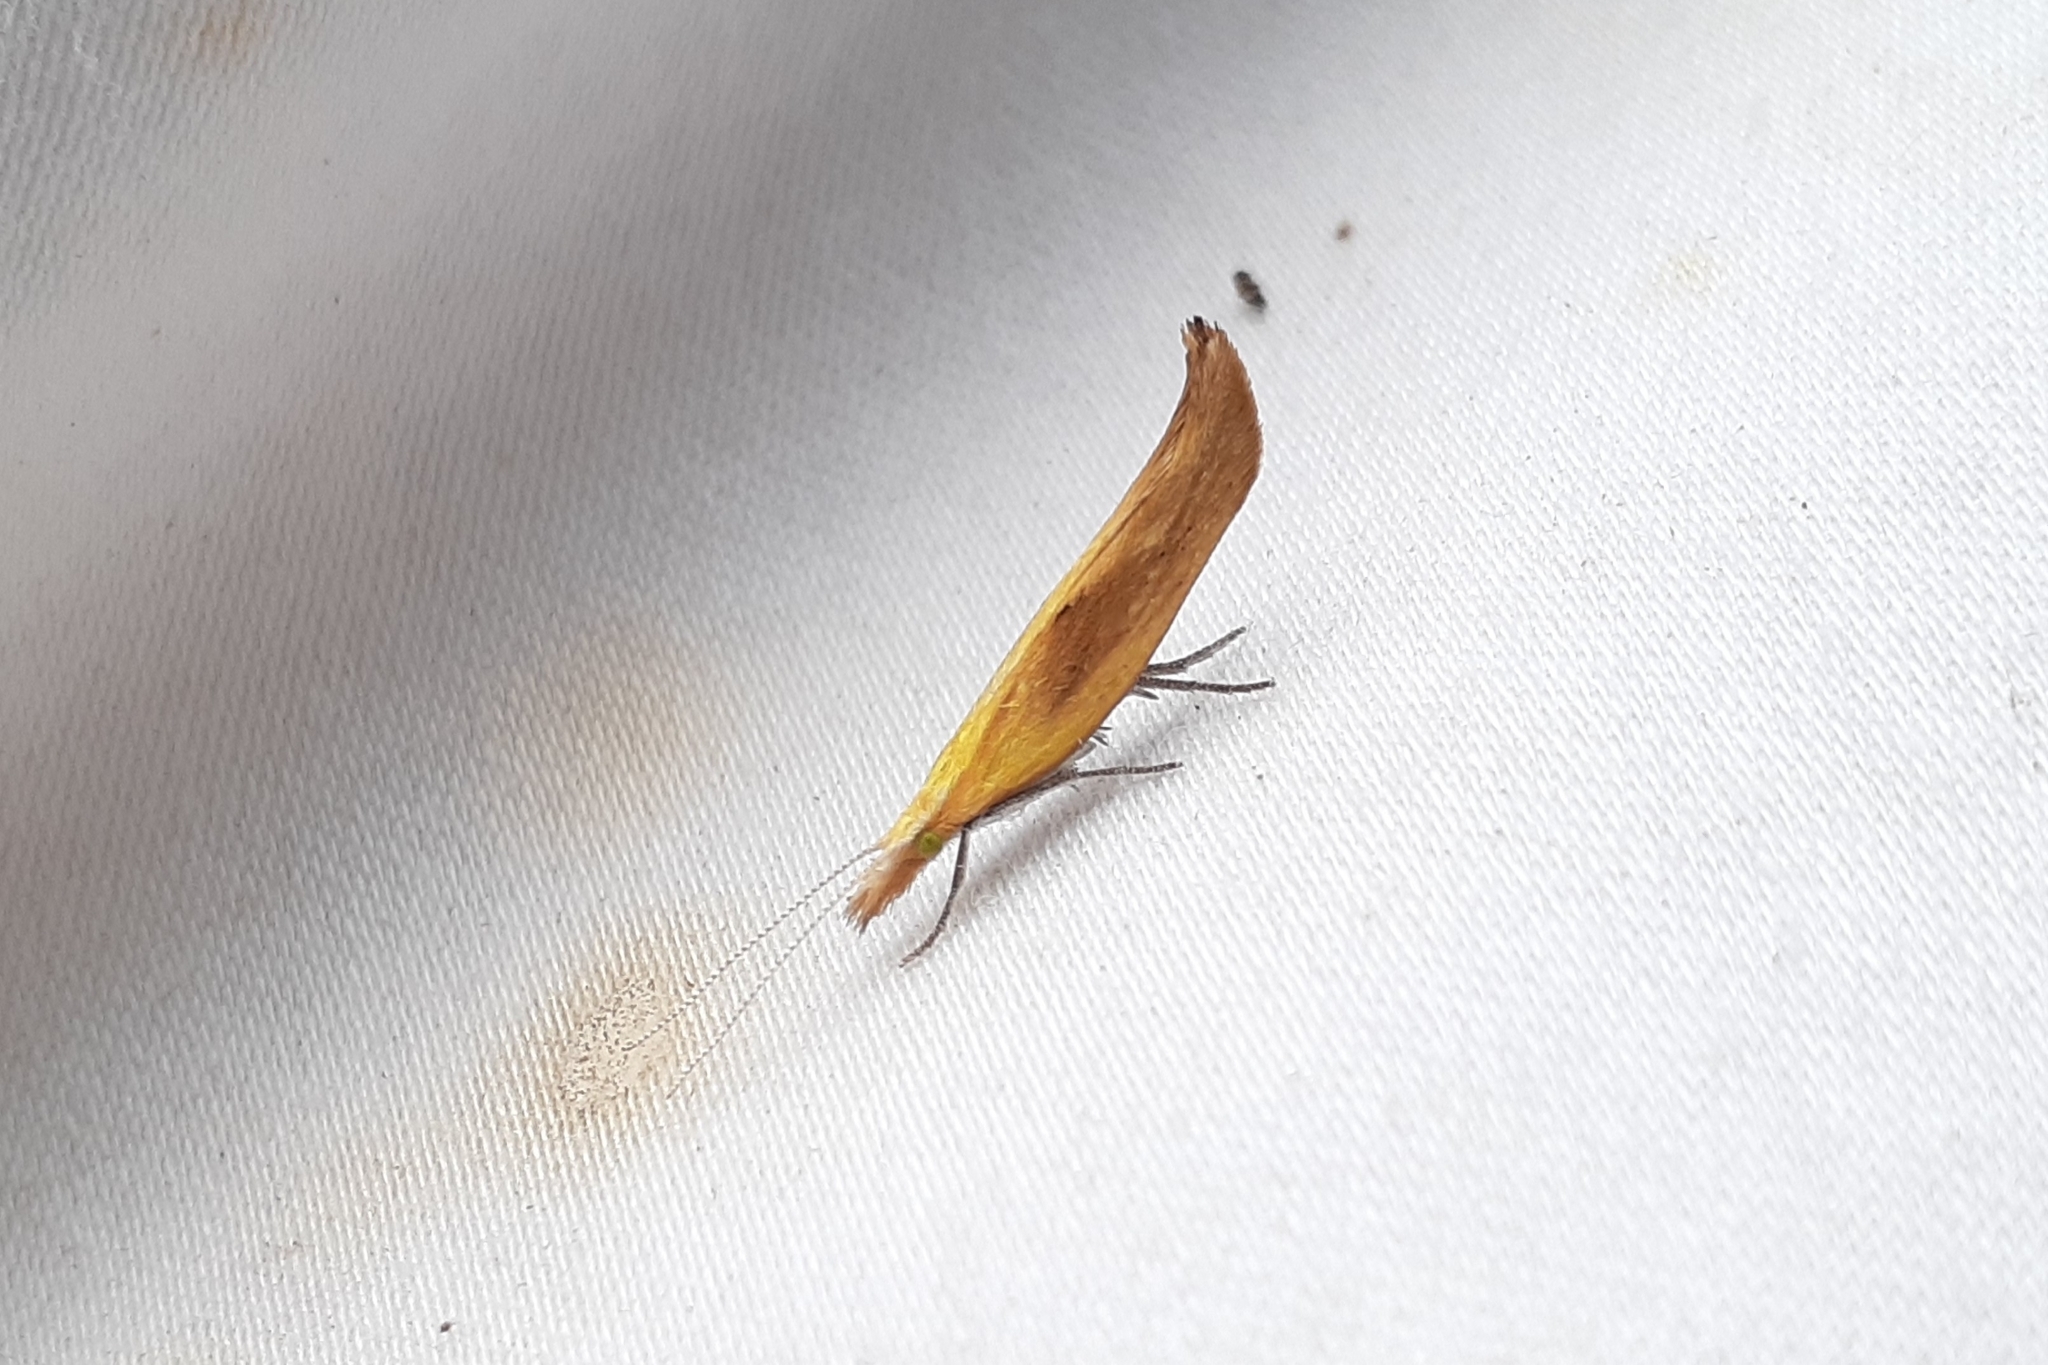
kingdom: Animalia
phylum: Arthropoda
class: Insecta
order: Lepidoptera
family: Ypsolophidae
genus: Ypsolopha
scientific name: Ypsolopha canariella
